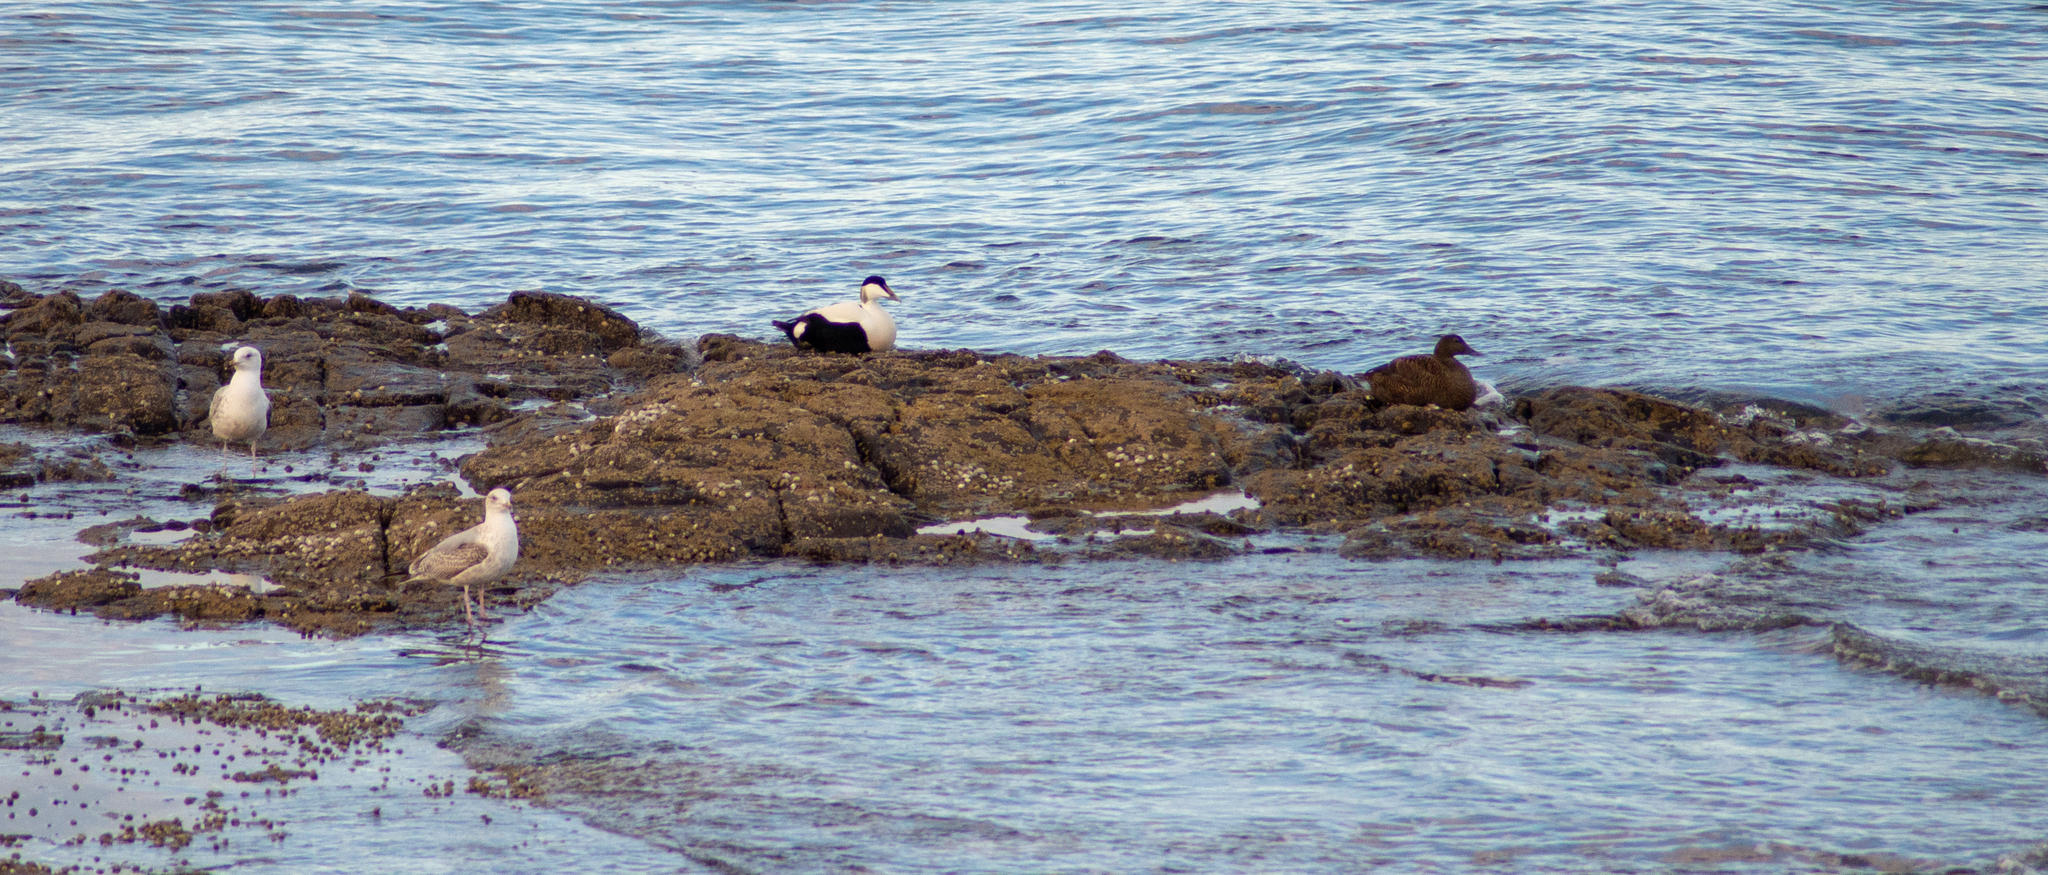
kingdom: Animalia
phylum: Chordata
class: Aves
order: Anseriformes
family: Anatidae
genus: Somateria
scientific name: Somateria mollissima
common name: Common eider
